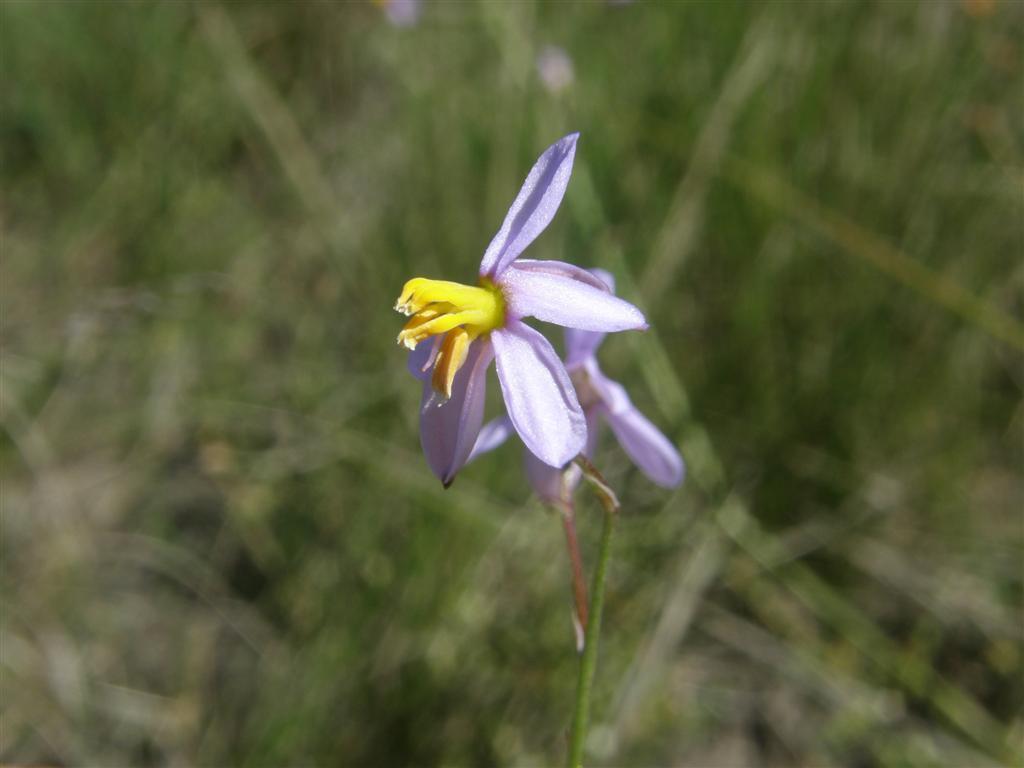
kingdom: Plantae
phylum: Tracheophyta
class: Liliopsida
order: Asparagales
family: Tecophilaeaceae
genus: Cyanella
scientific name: Cyanella hyacinthoides
